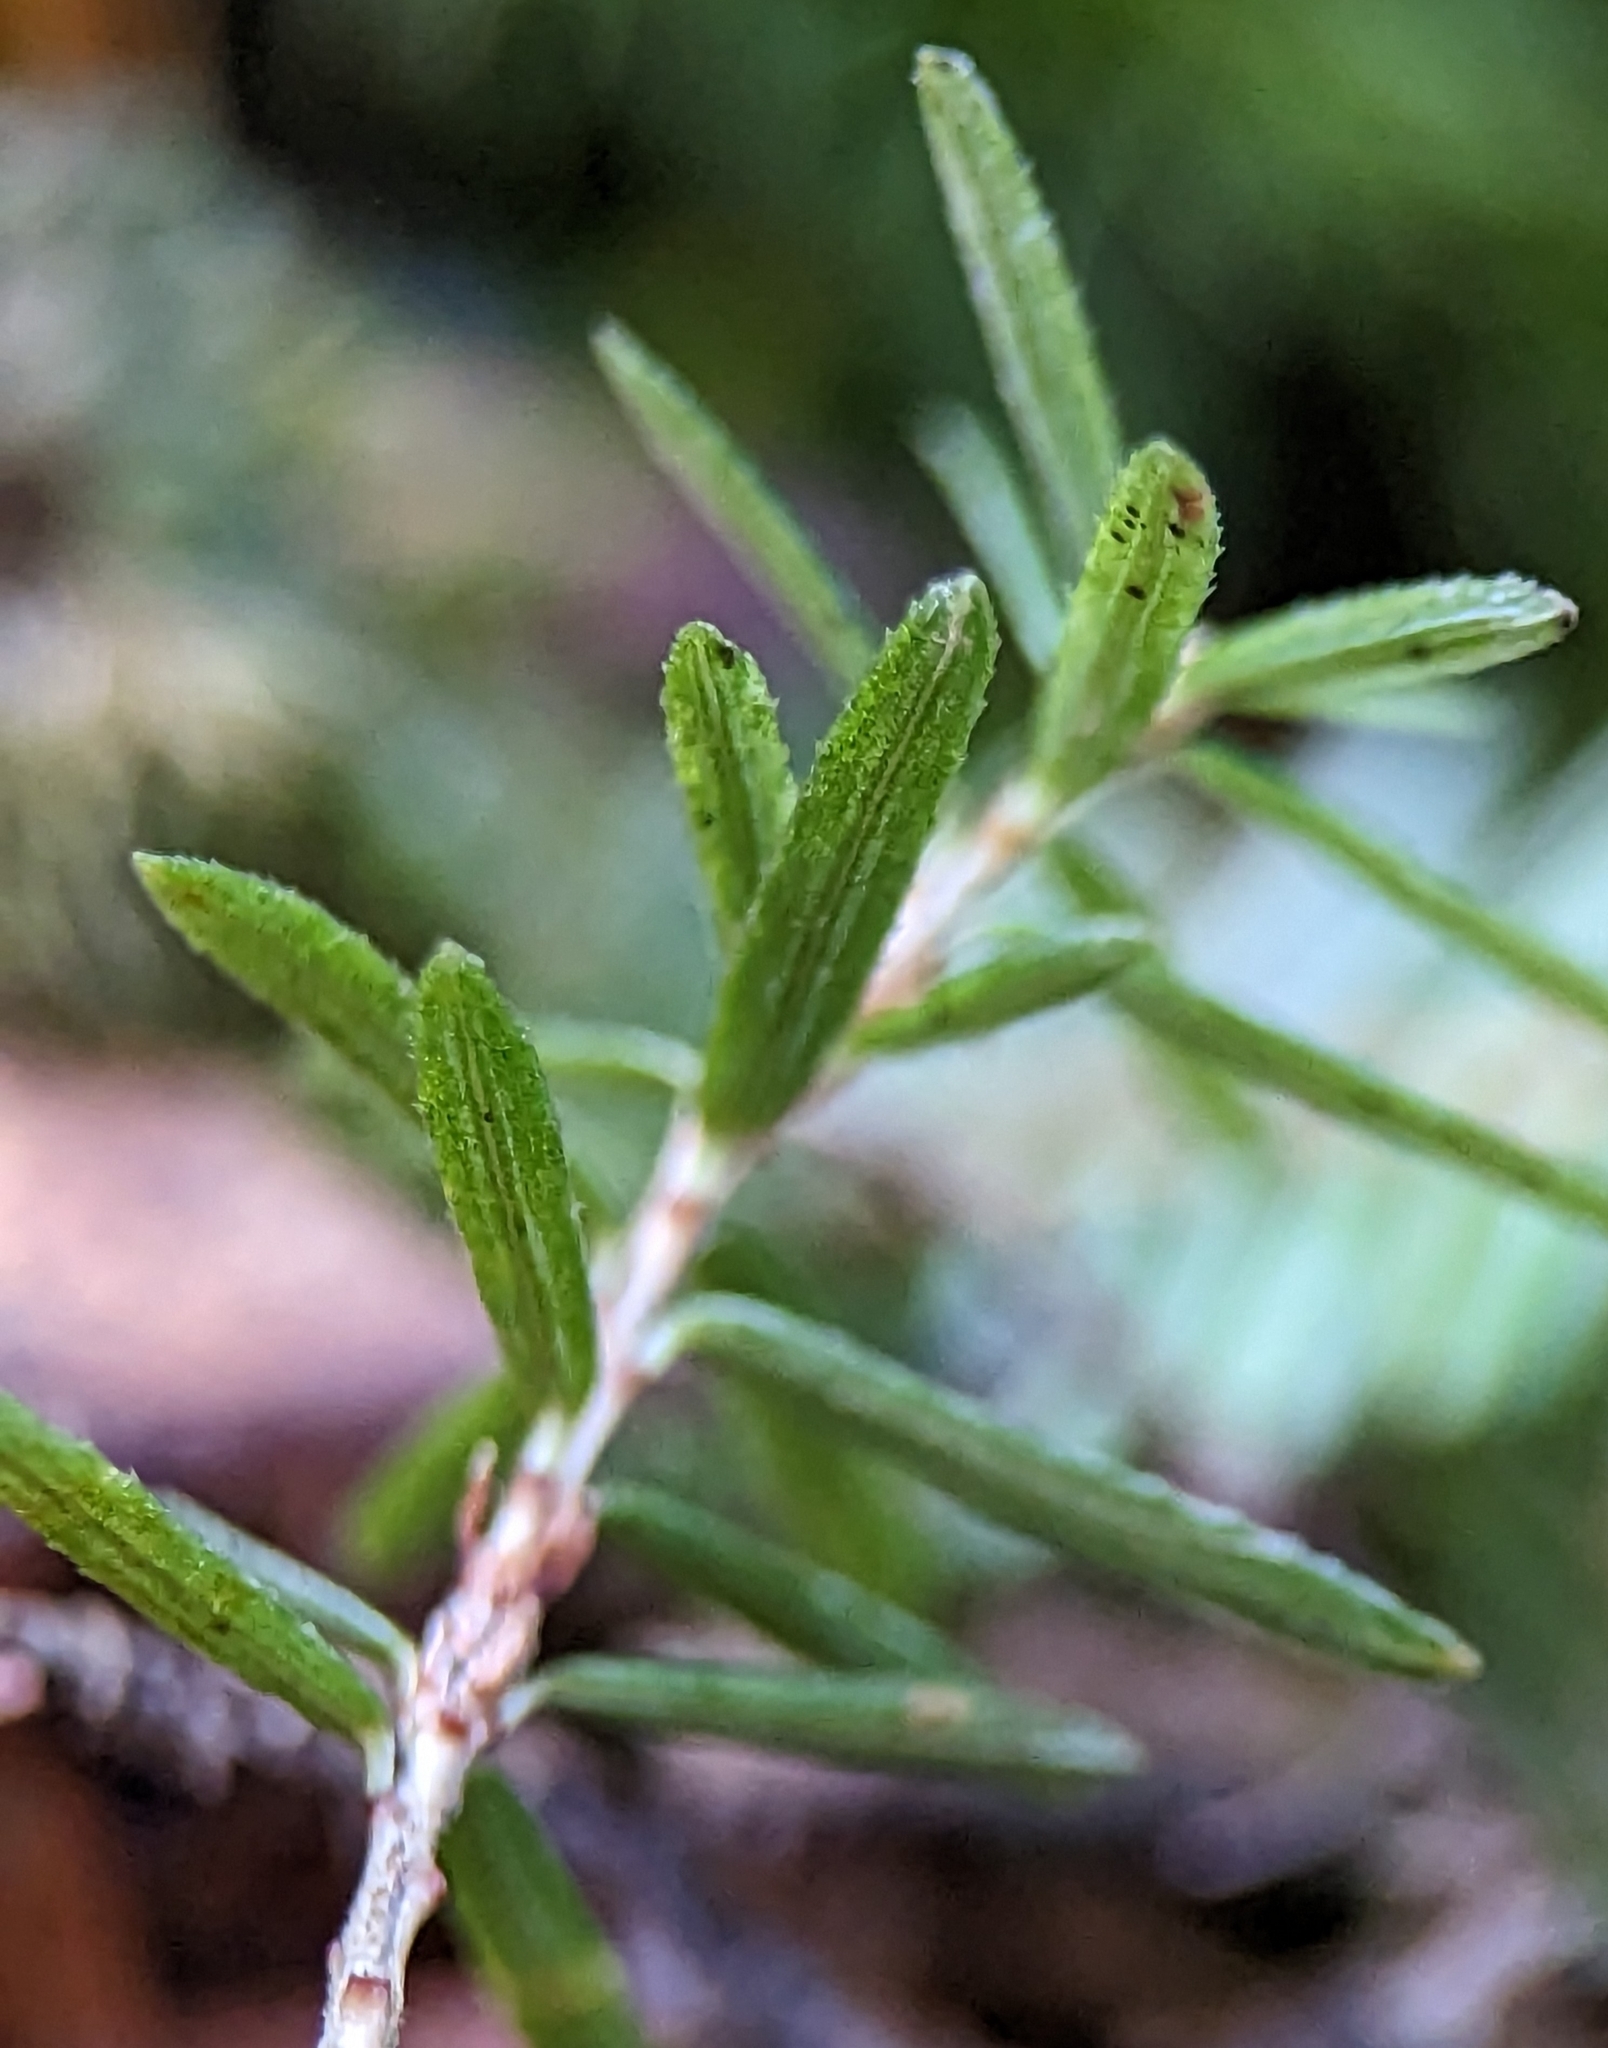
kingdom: Plantae
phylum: Tracheophyta
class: Pinopsida
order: Pinales
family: Pinaceae
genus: Tsuga
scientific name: Tsuga canadensis
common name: Eastern hemlock
